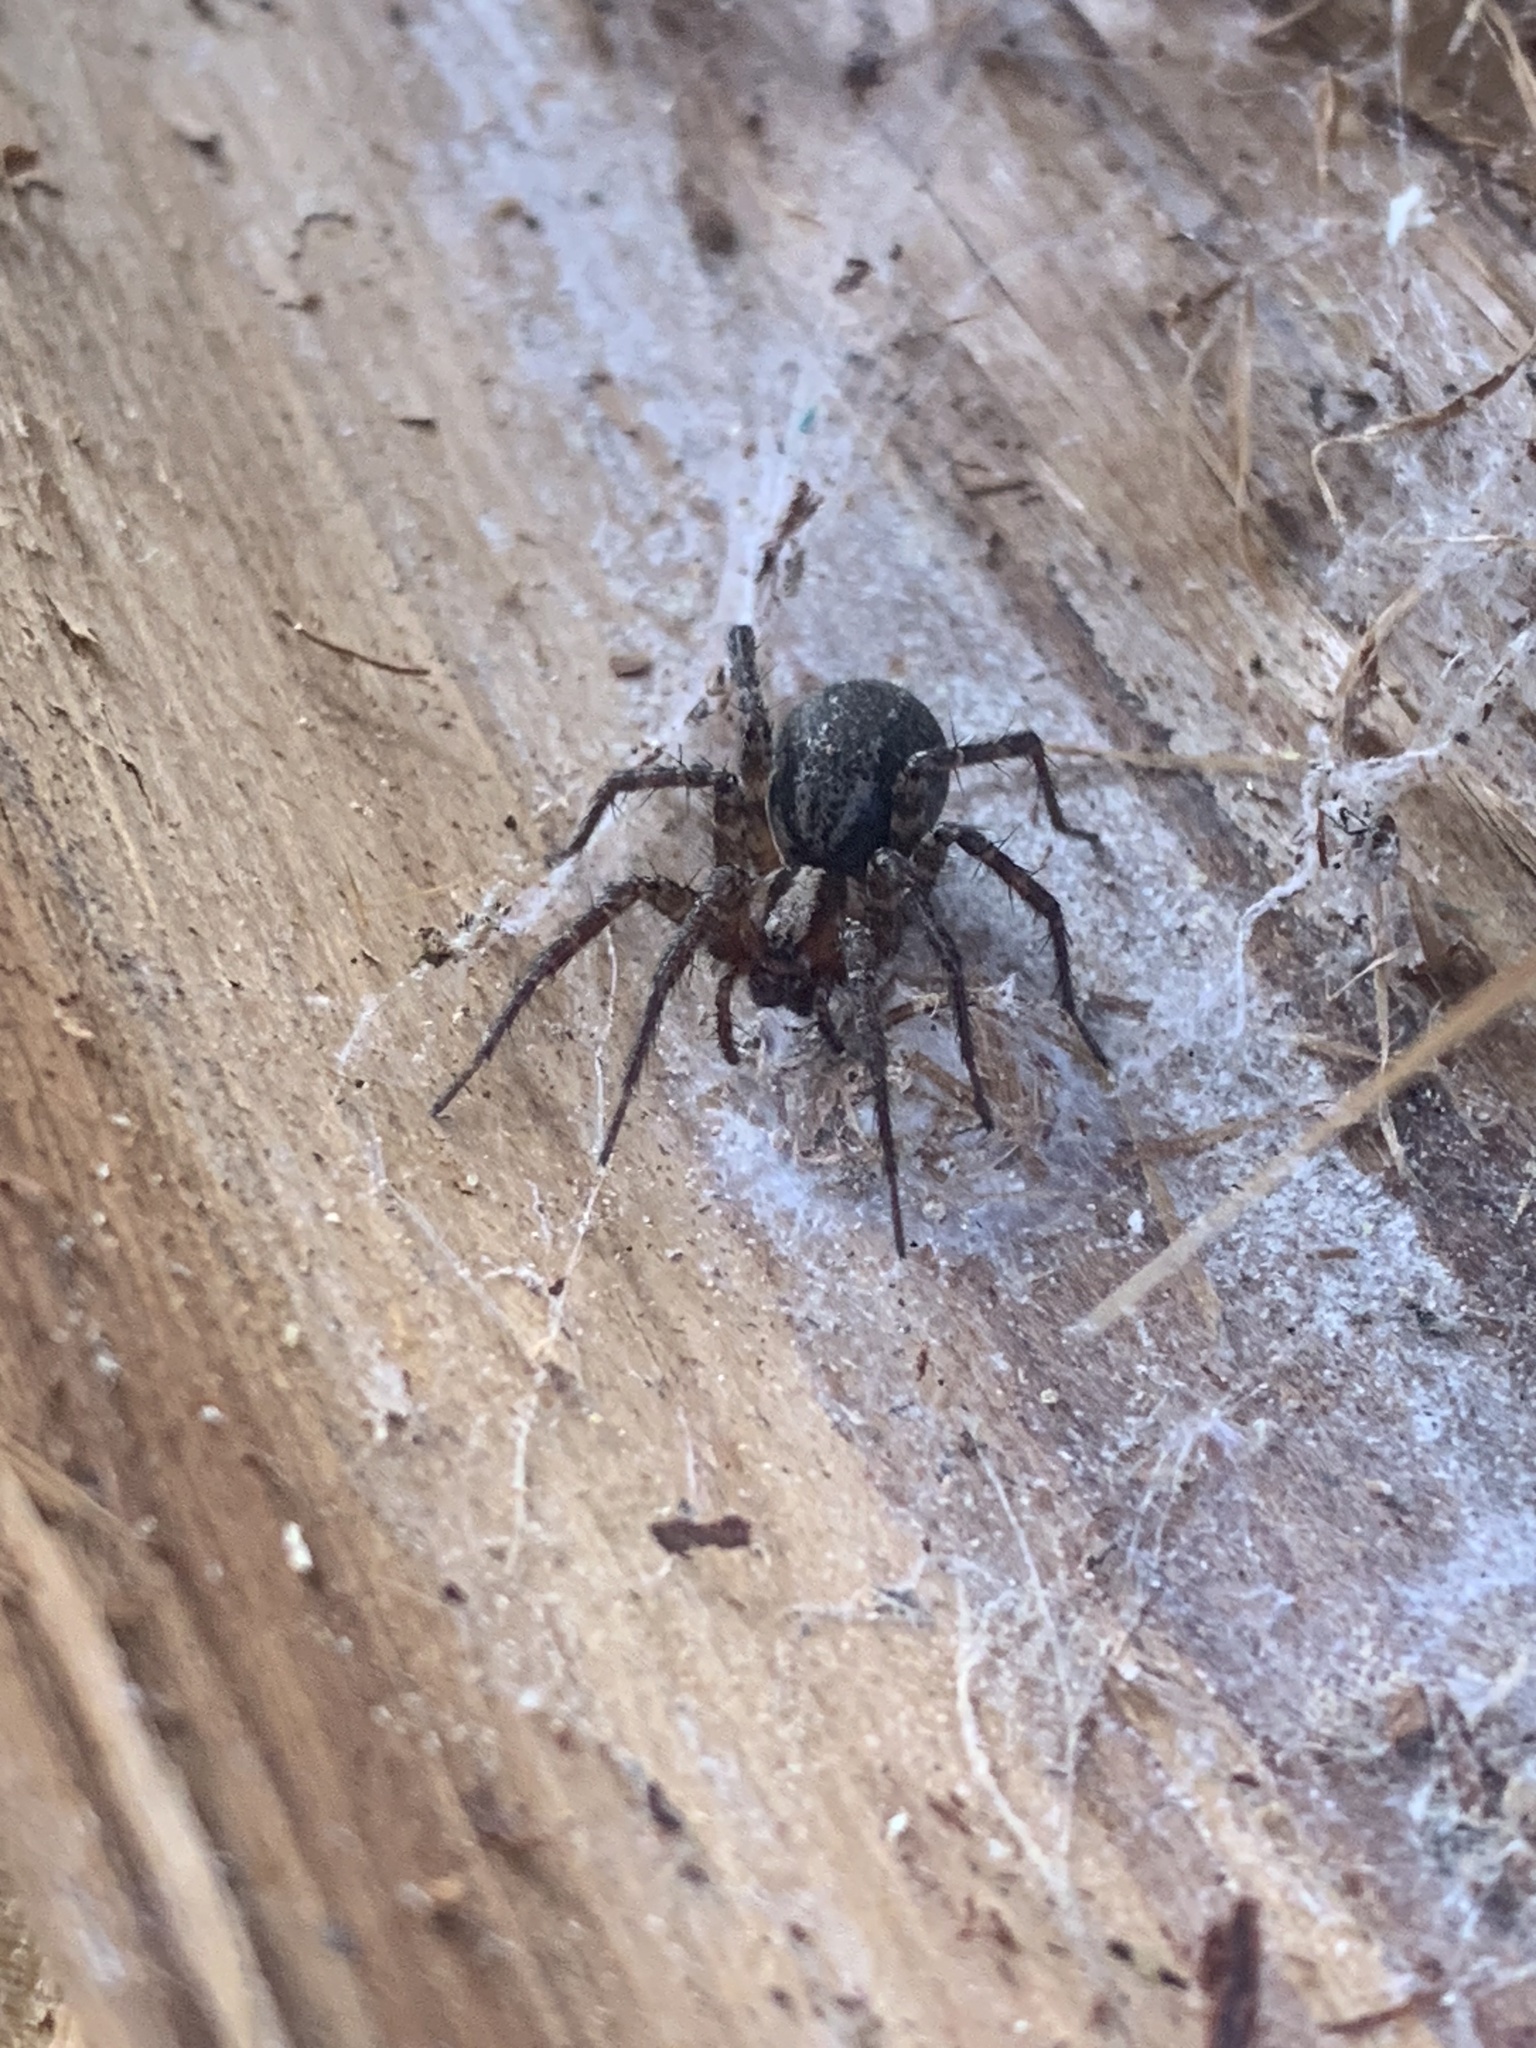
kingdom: Animalia
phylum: Arthropoda
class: Arachnida
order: Araneae
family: Agelenidae
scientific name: Agelenidae
